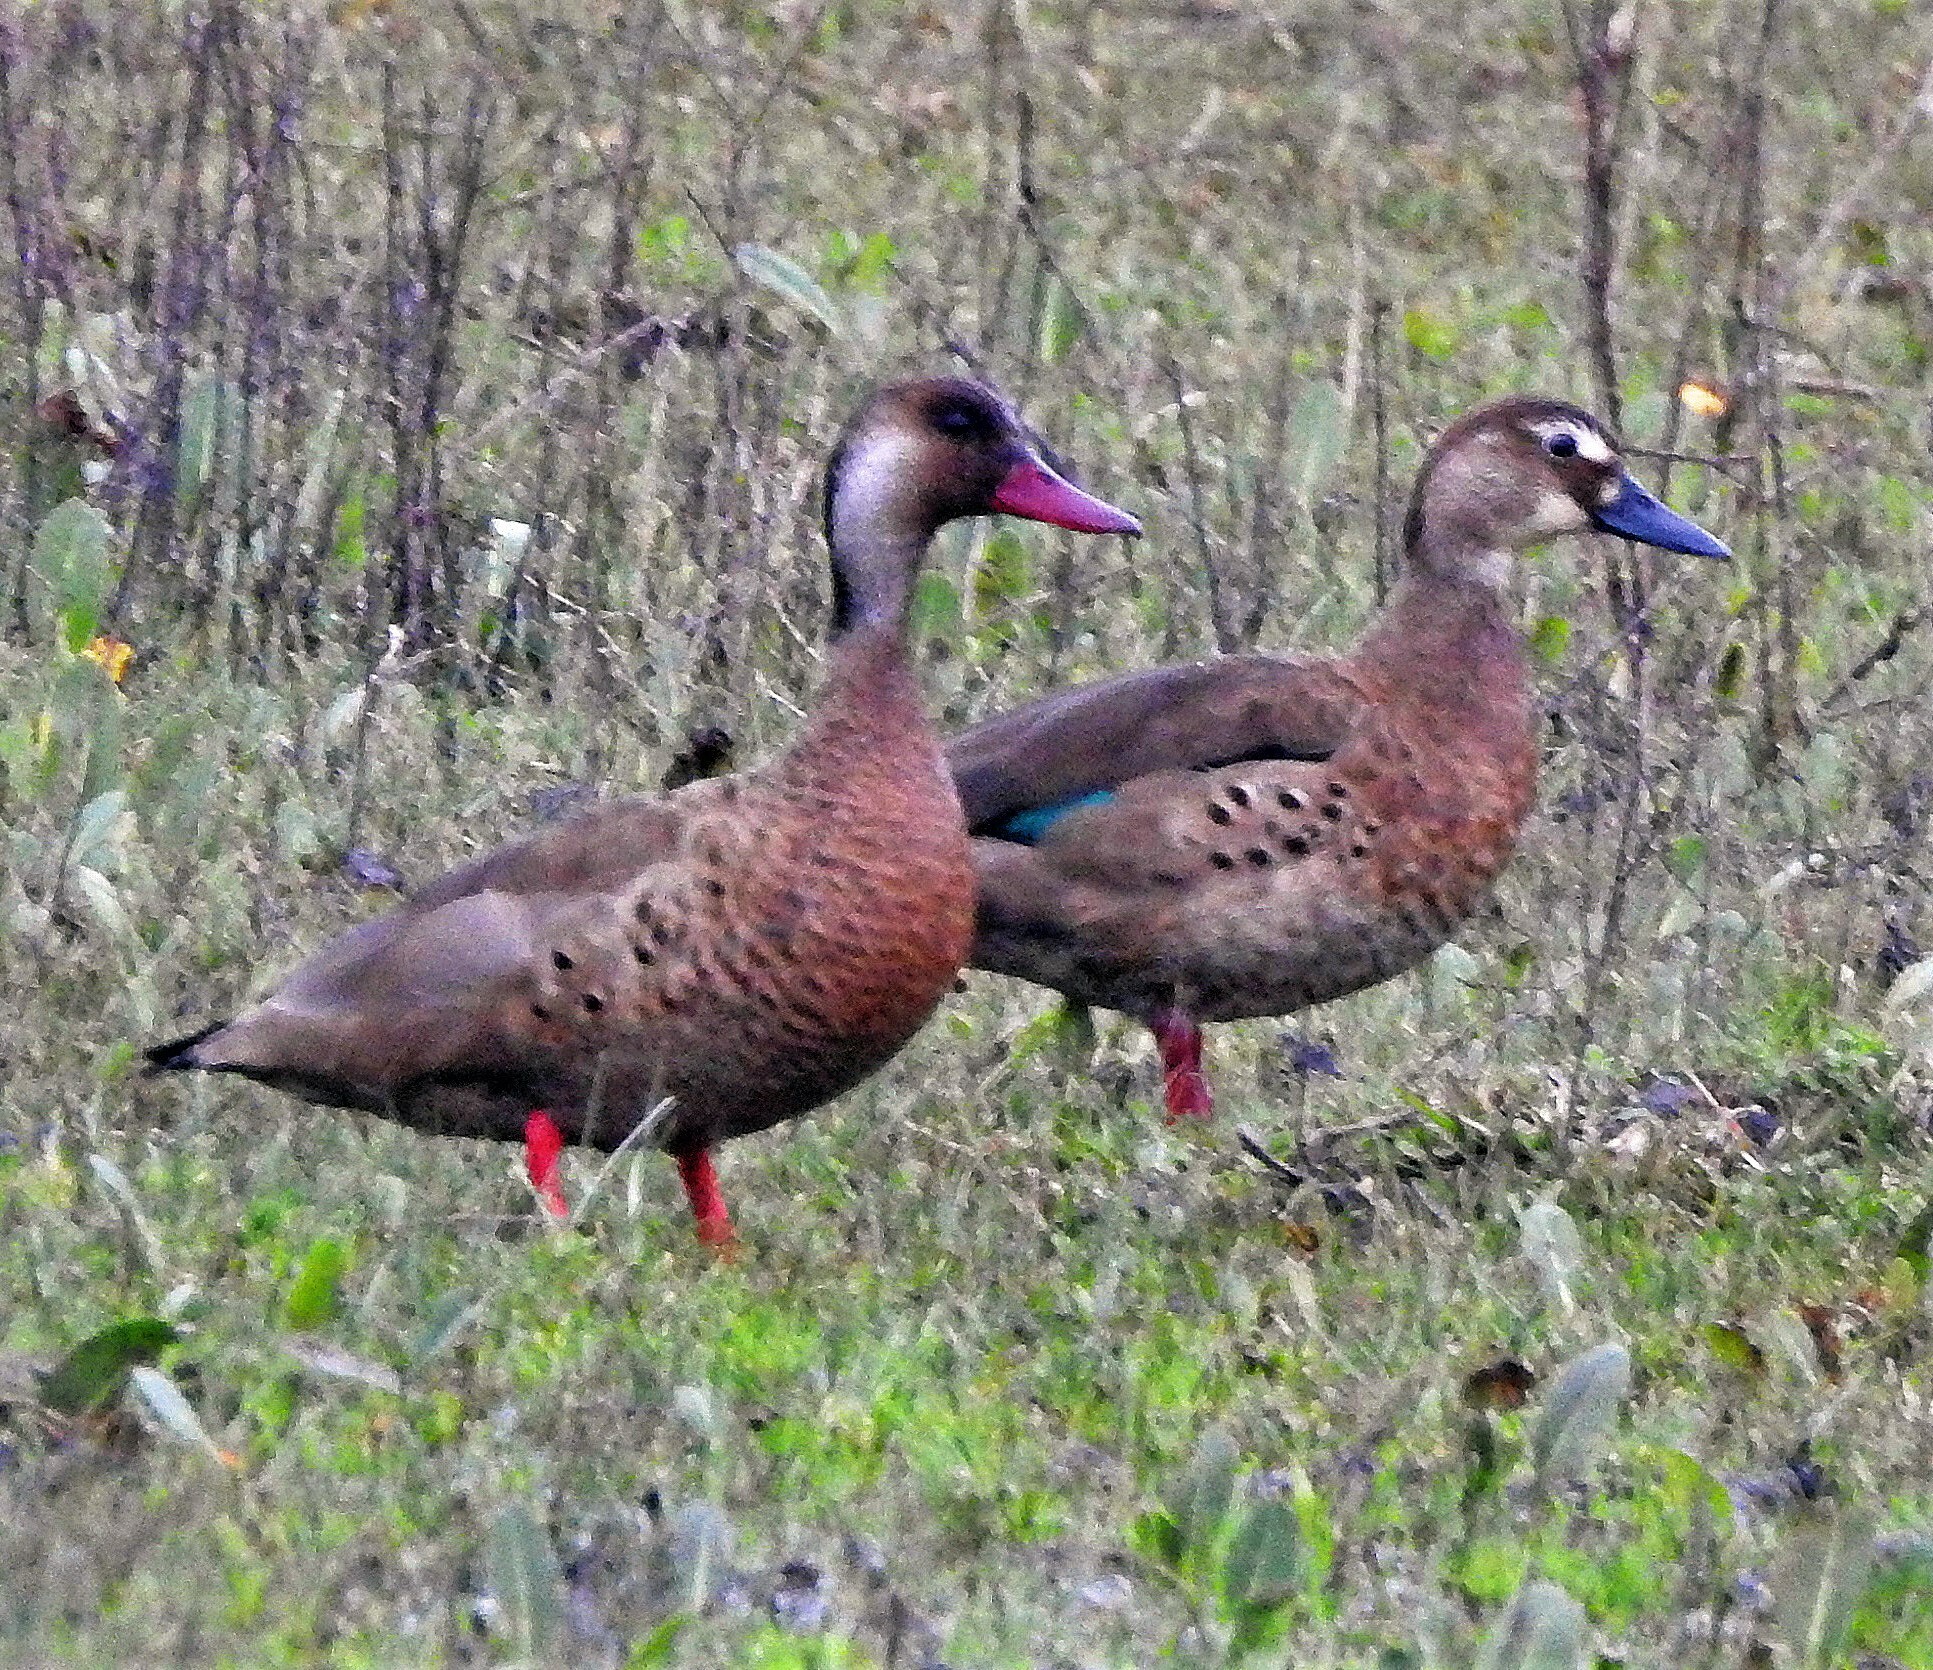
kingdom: Animalia
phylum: Chordata
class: Aves
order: Anseriformes
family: Anatidae
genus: Amazonetta
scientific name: Amazonetta brasiliensis
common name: Brazilian teal
